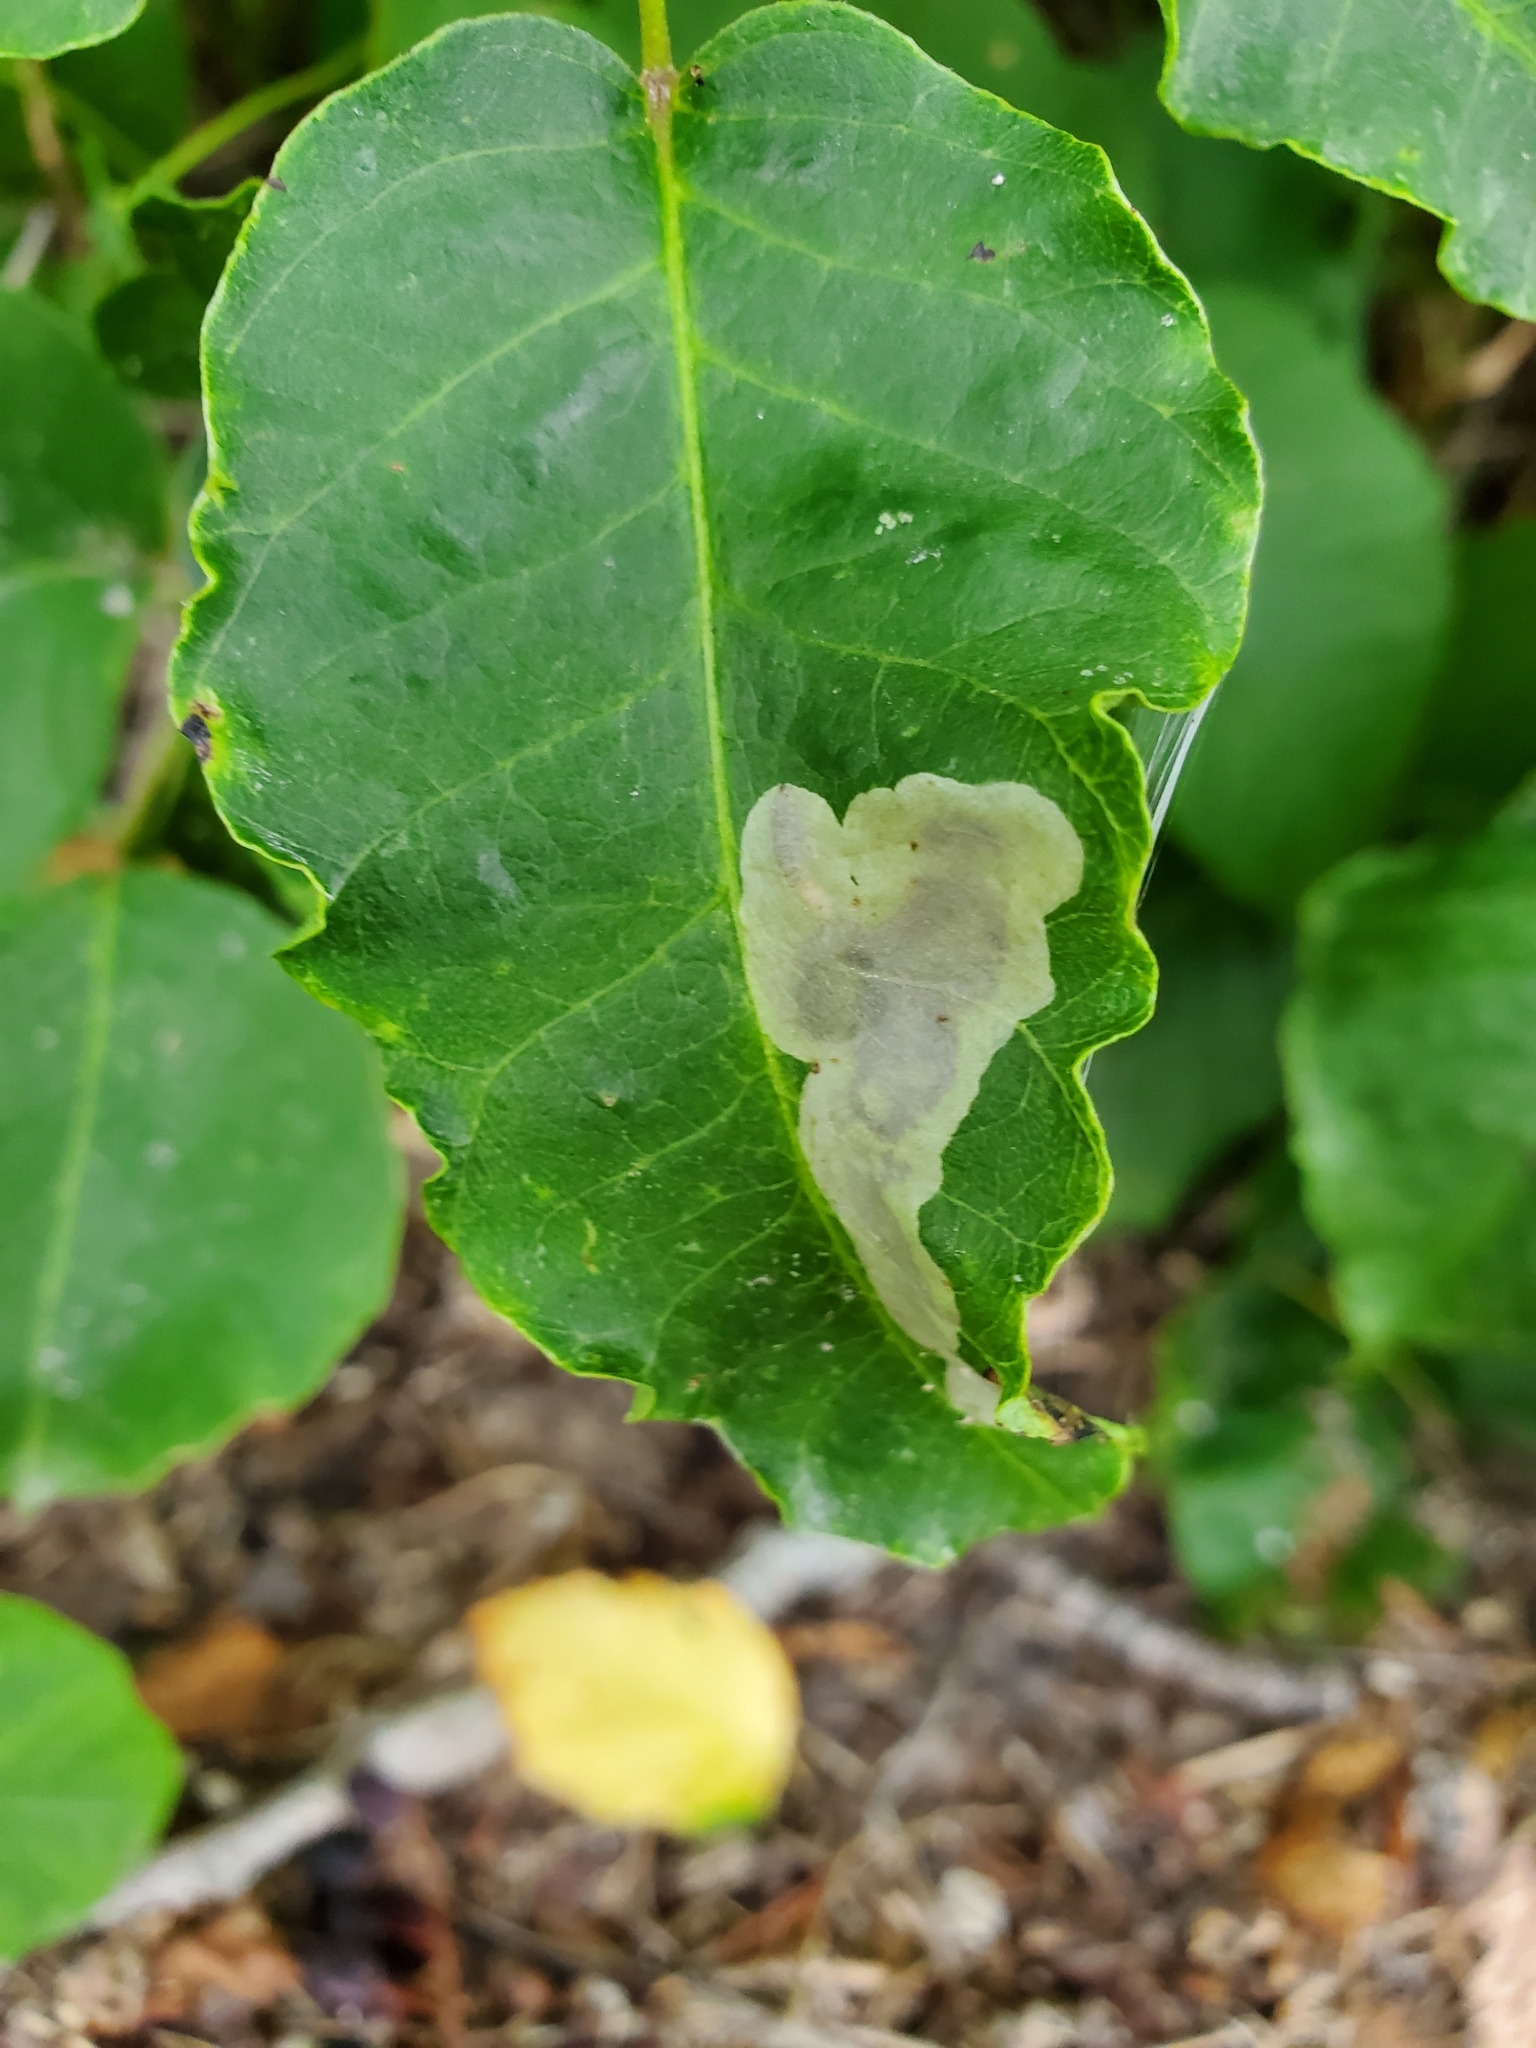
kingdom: Animalia
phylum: Arthropoda
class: Insecta
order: Lepidoptera
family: Gracillariidae
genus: Cameraria
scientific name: Cameraria guttifinitella
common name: Poison ivy leaf-miner moth
